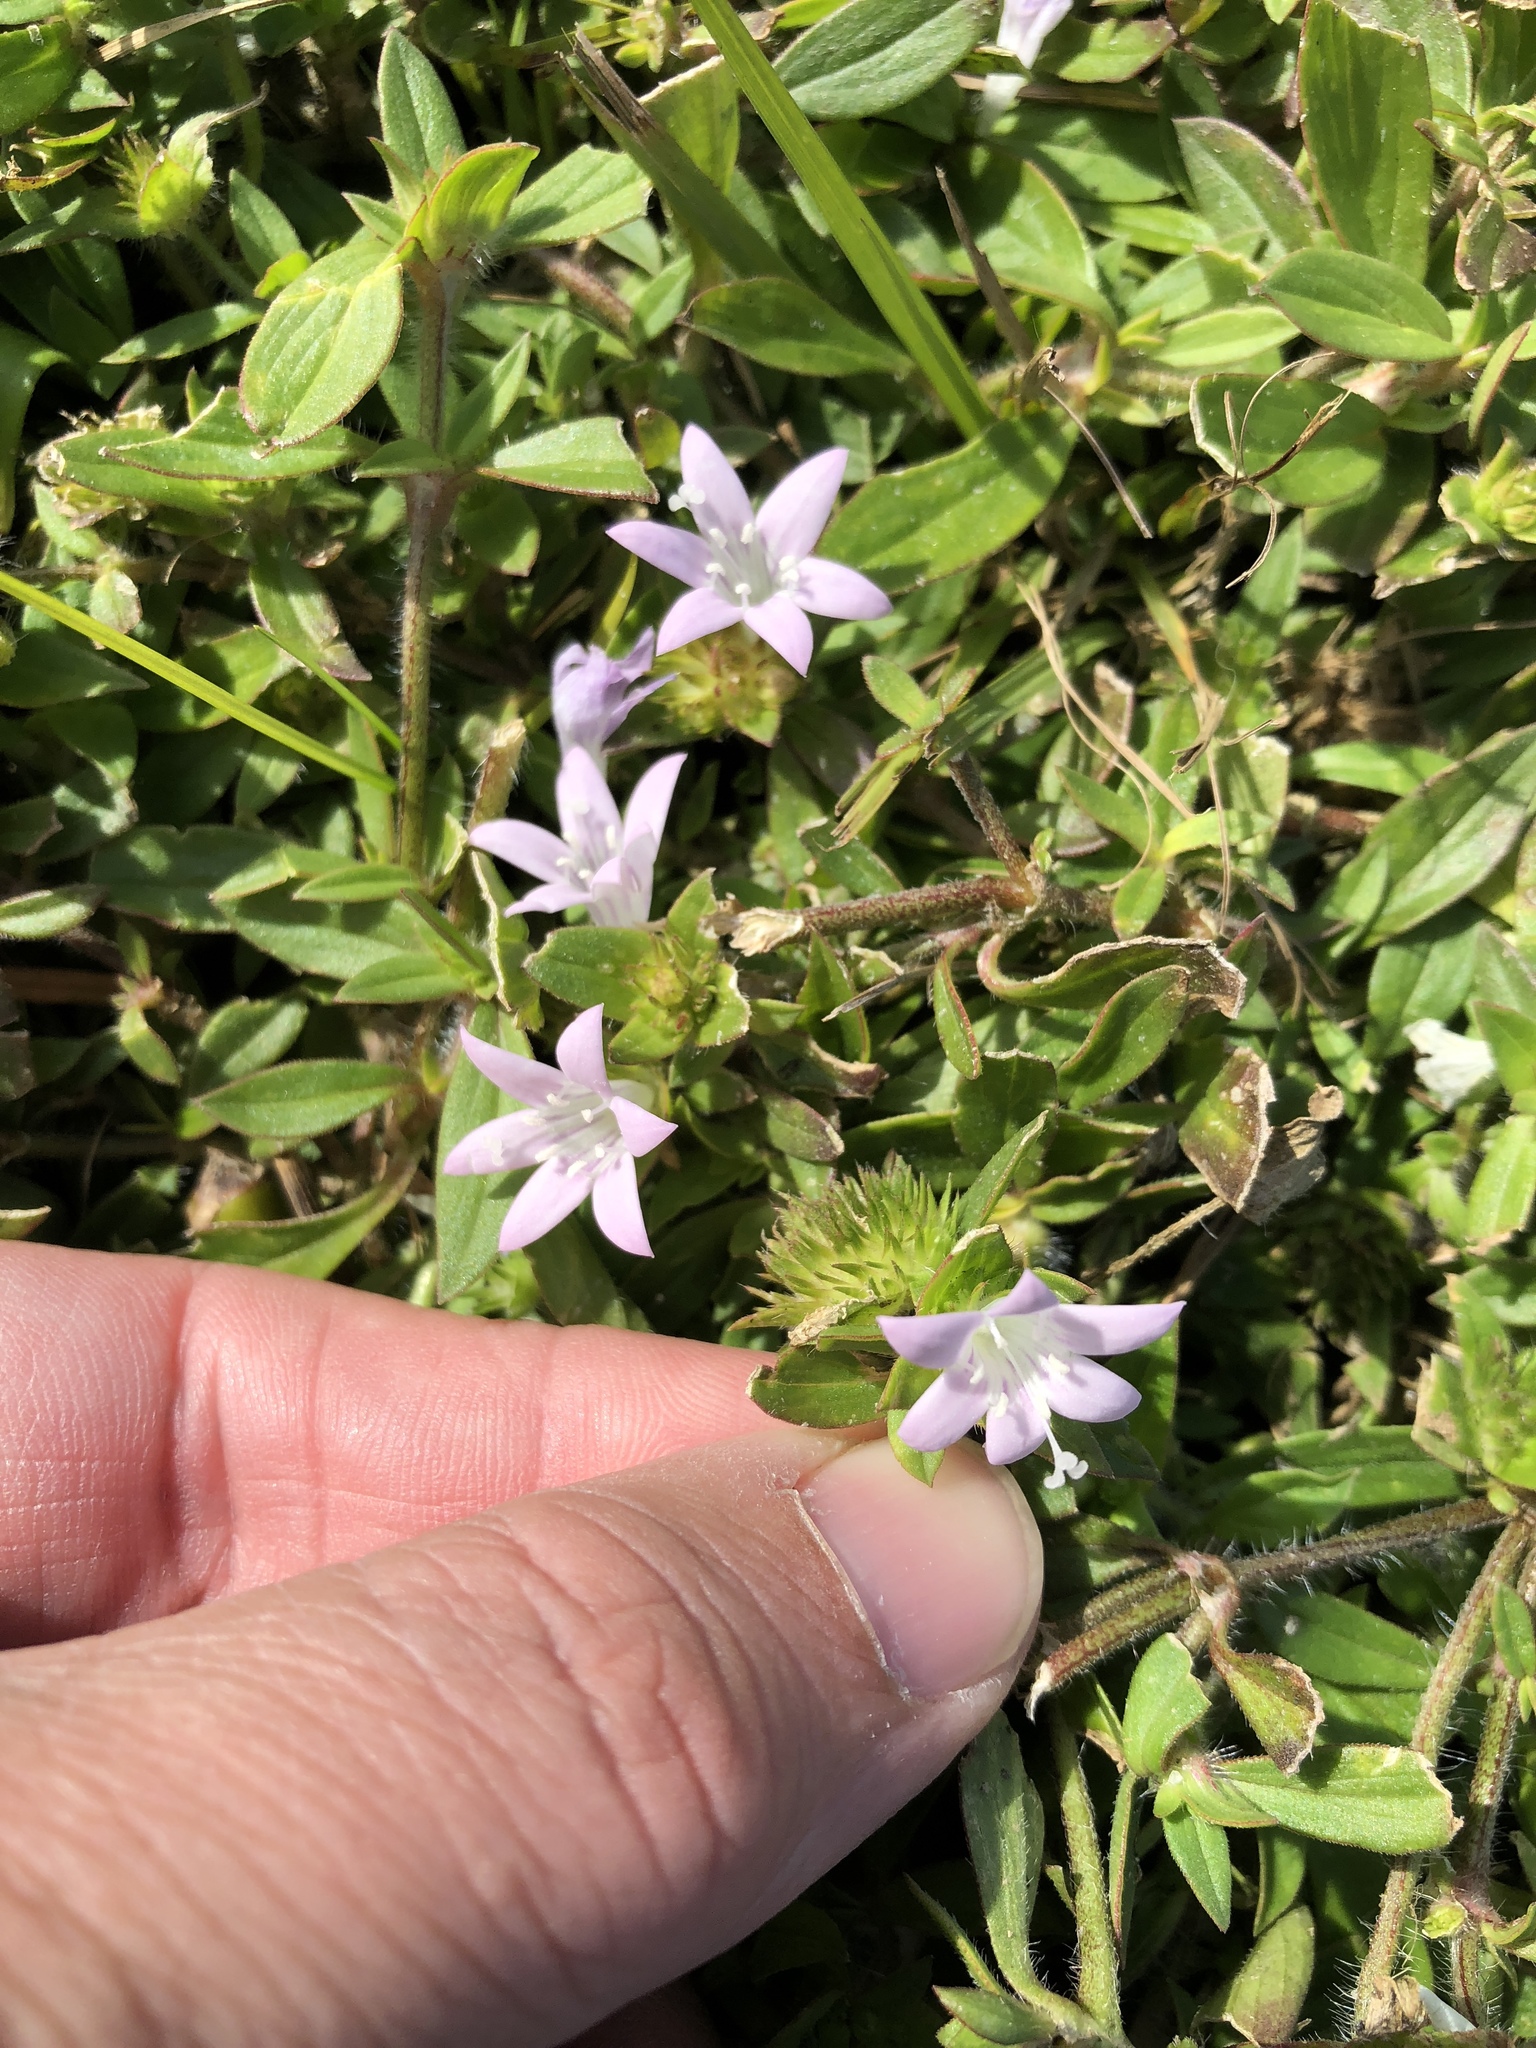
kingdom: Plantae
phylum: Tracheophyta
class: Magnoliopsida
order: Gentianales
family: Rubiaceae
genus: Richardia
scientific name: Richardia grandiflora
